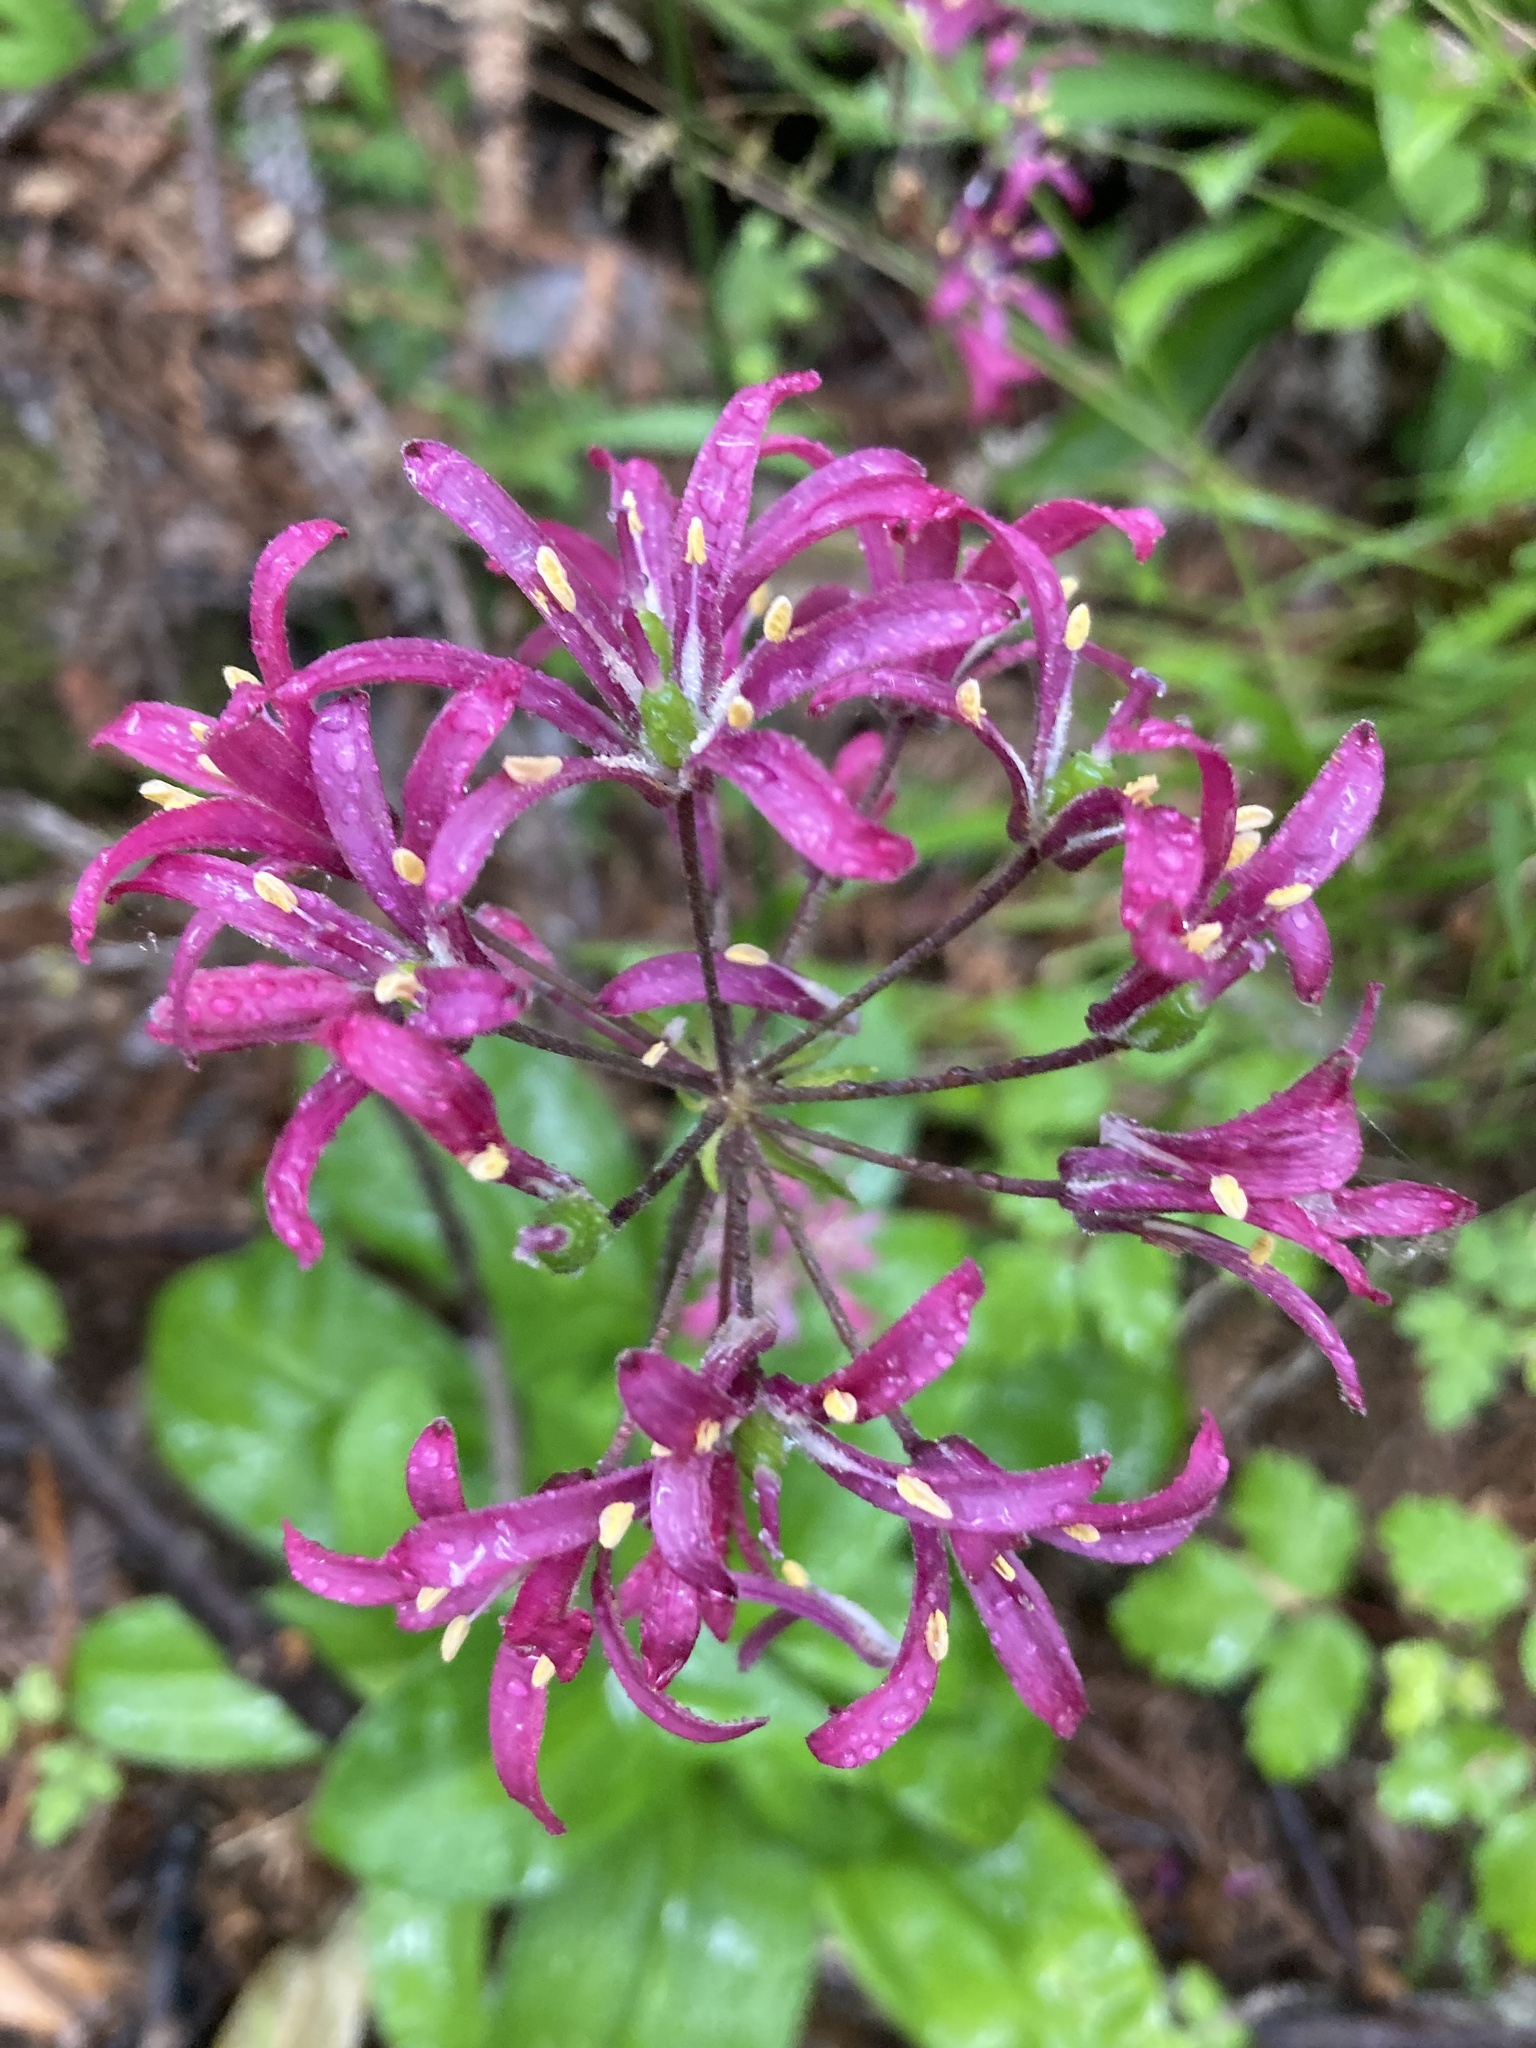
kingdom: Plantae
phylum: Tracheophyta
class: Liliopsida
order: Liliales
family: Liliaceae
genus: Clintonia
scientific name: Clintonia andrewsiana
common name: Red clintonia
